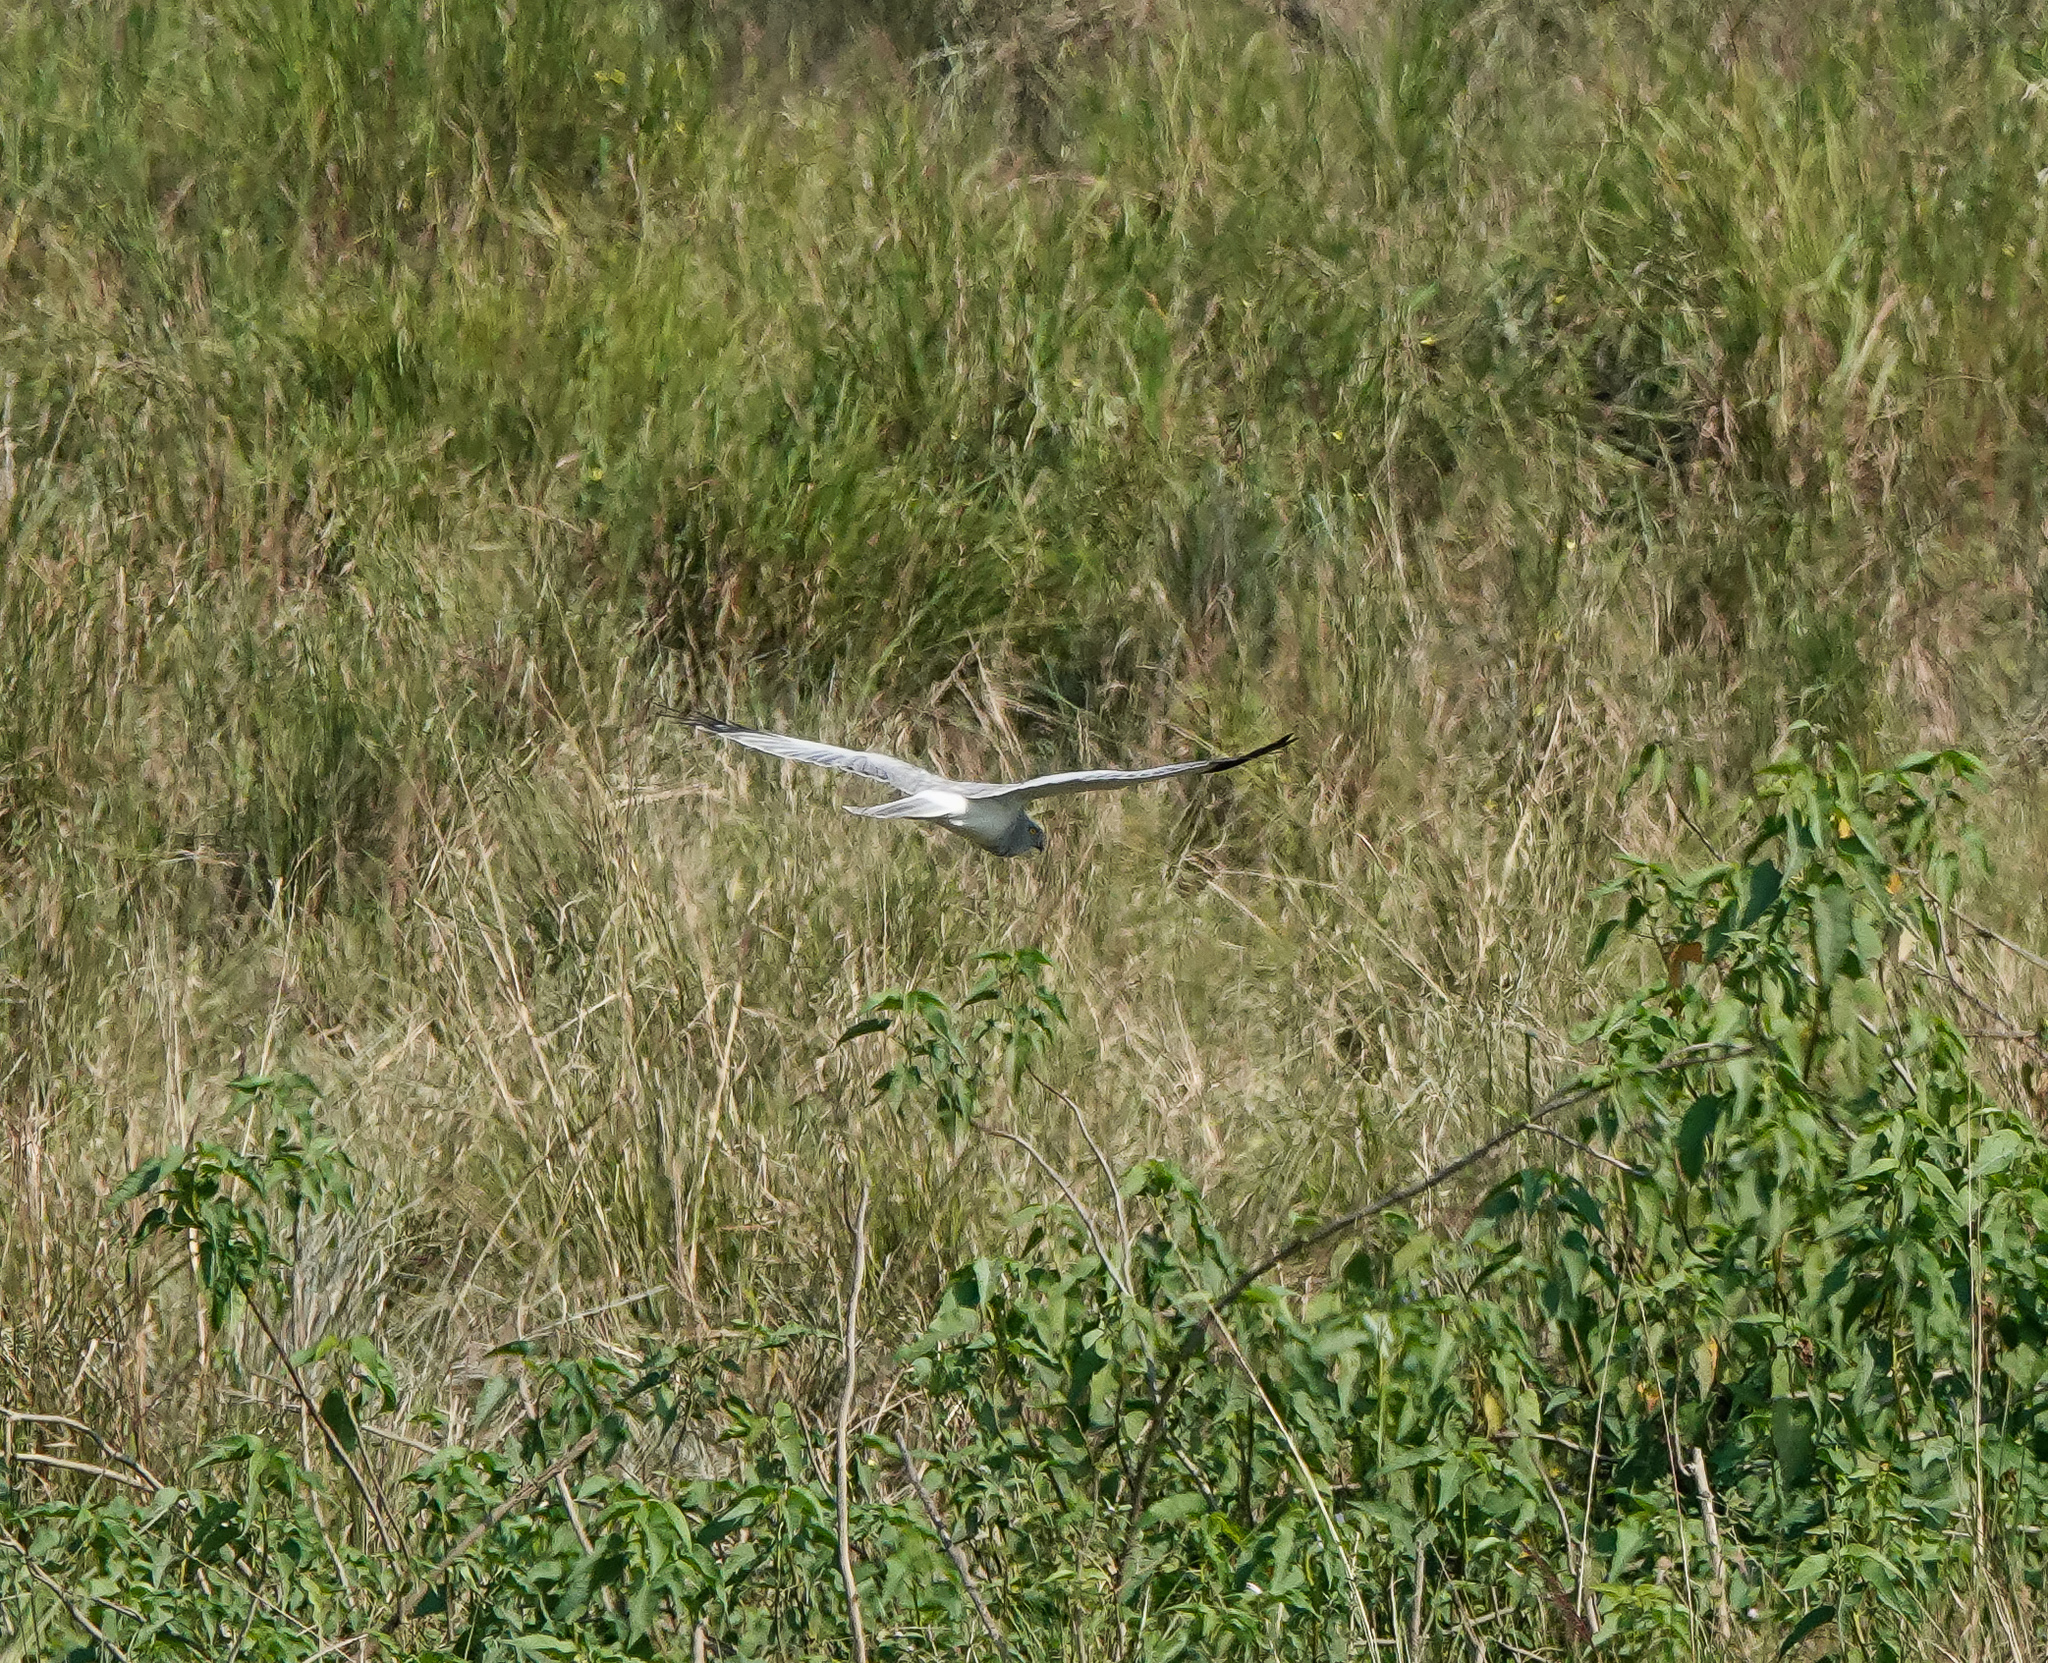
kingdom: Animalia
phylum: Chordata
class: Aves
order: Accipitriformes
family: Accipitridae
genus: Circus
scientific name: Circus cyaneus
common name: Hen harrier
